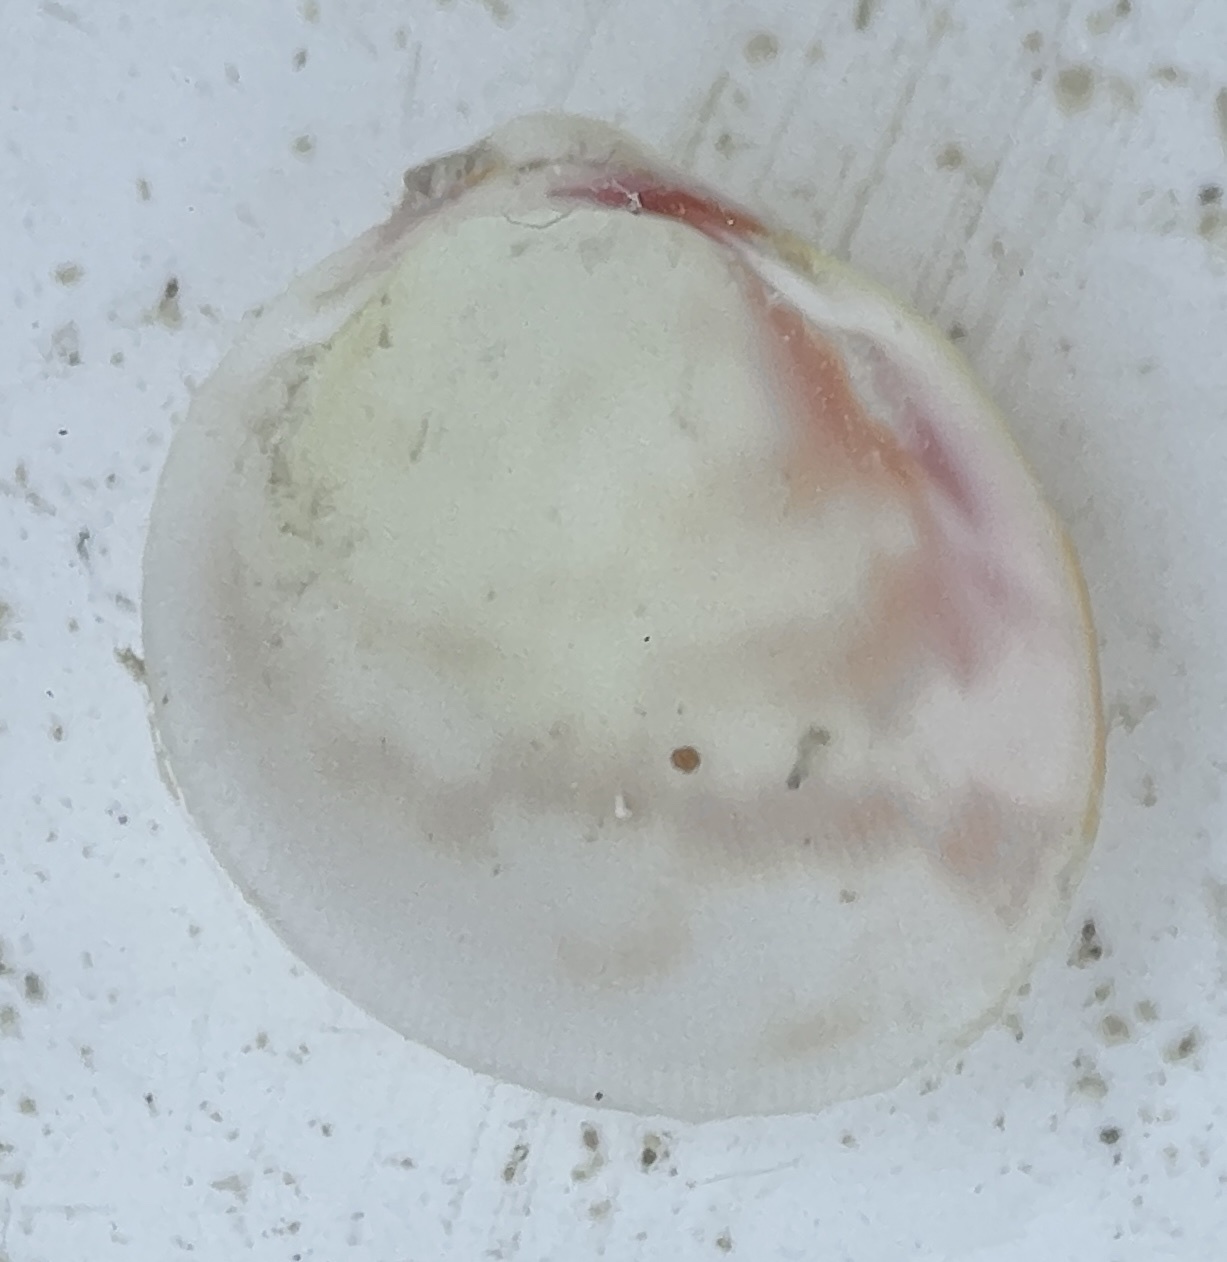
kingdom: Animalia
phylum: Mollusca
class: Bivalvia
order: Cardiida
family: Cardiidae
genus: Laevicardium
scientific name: Laevicardium serratum
